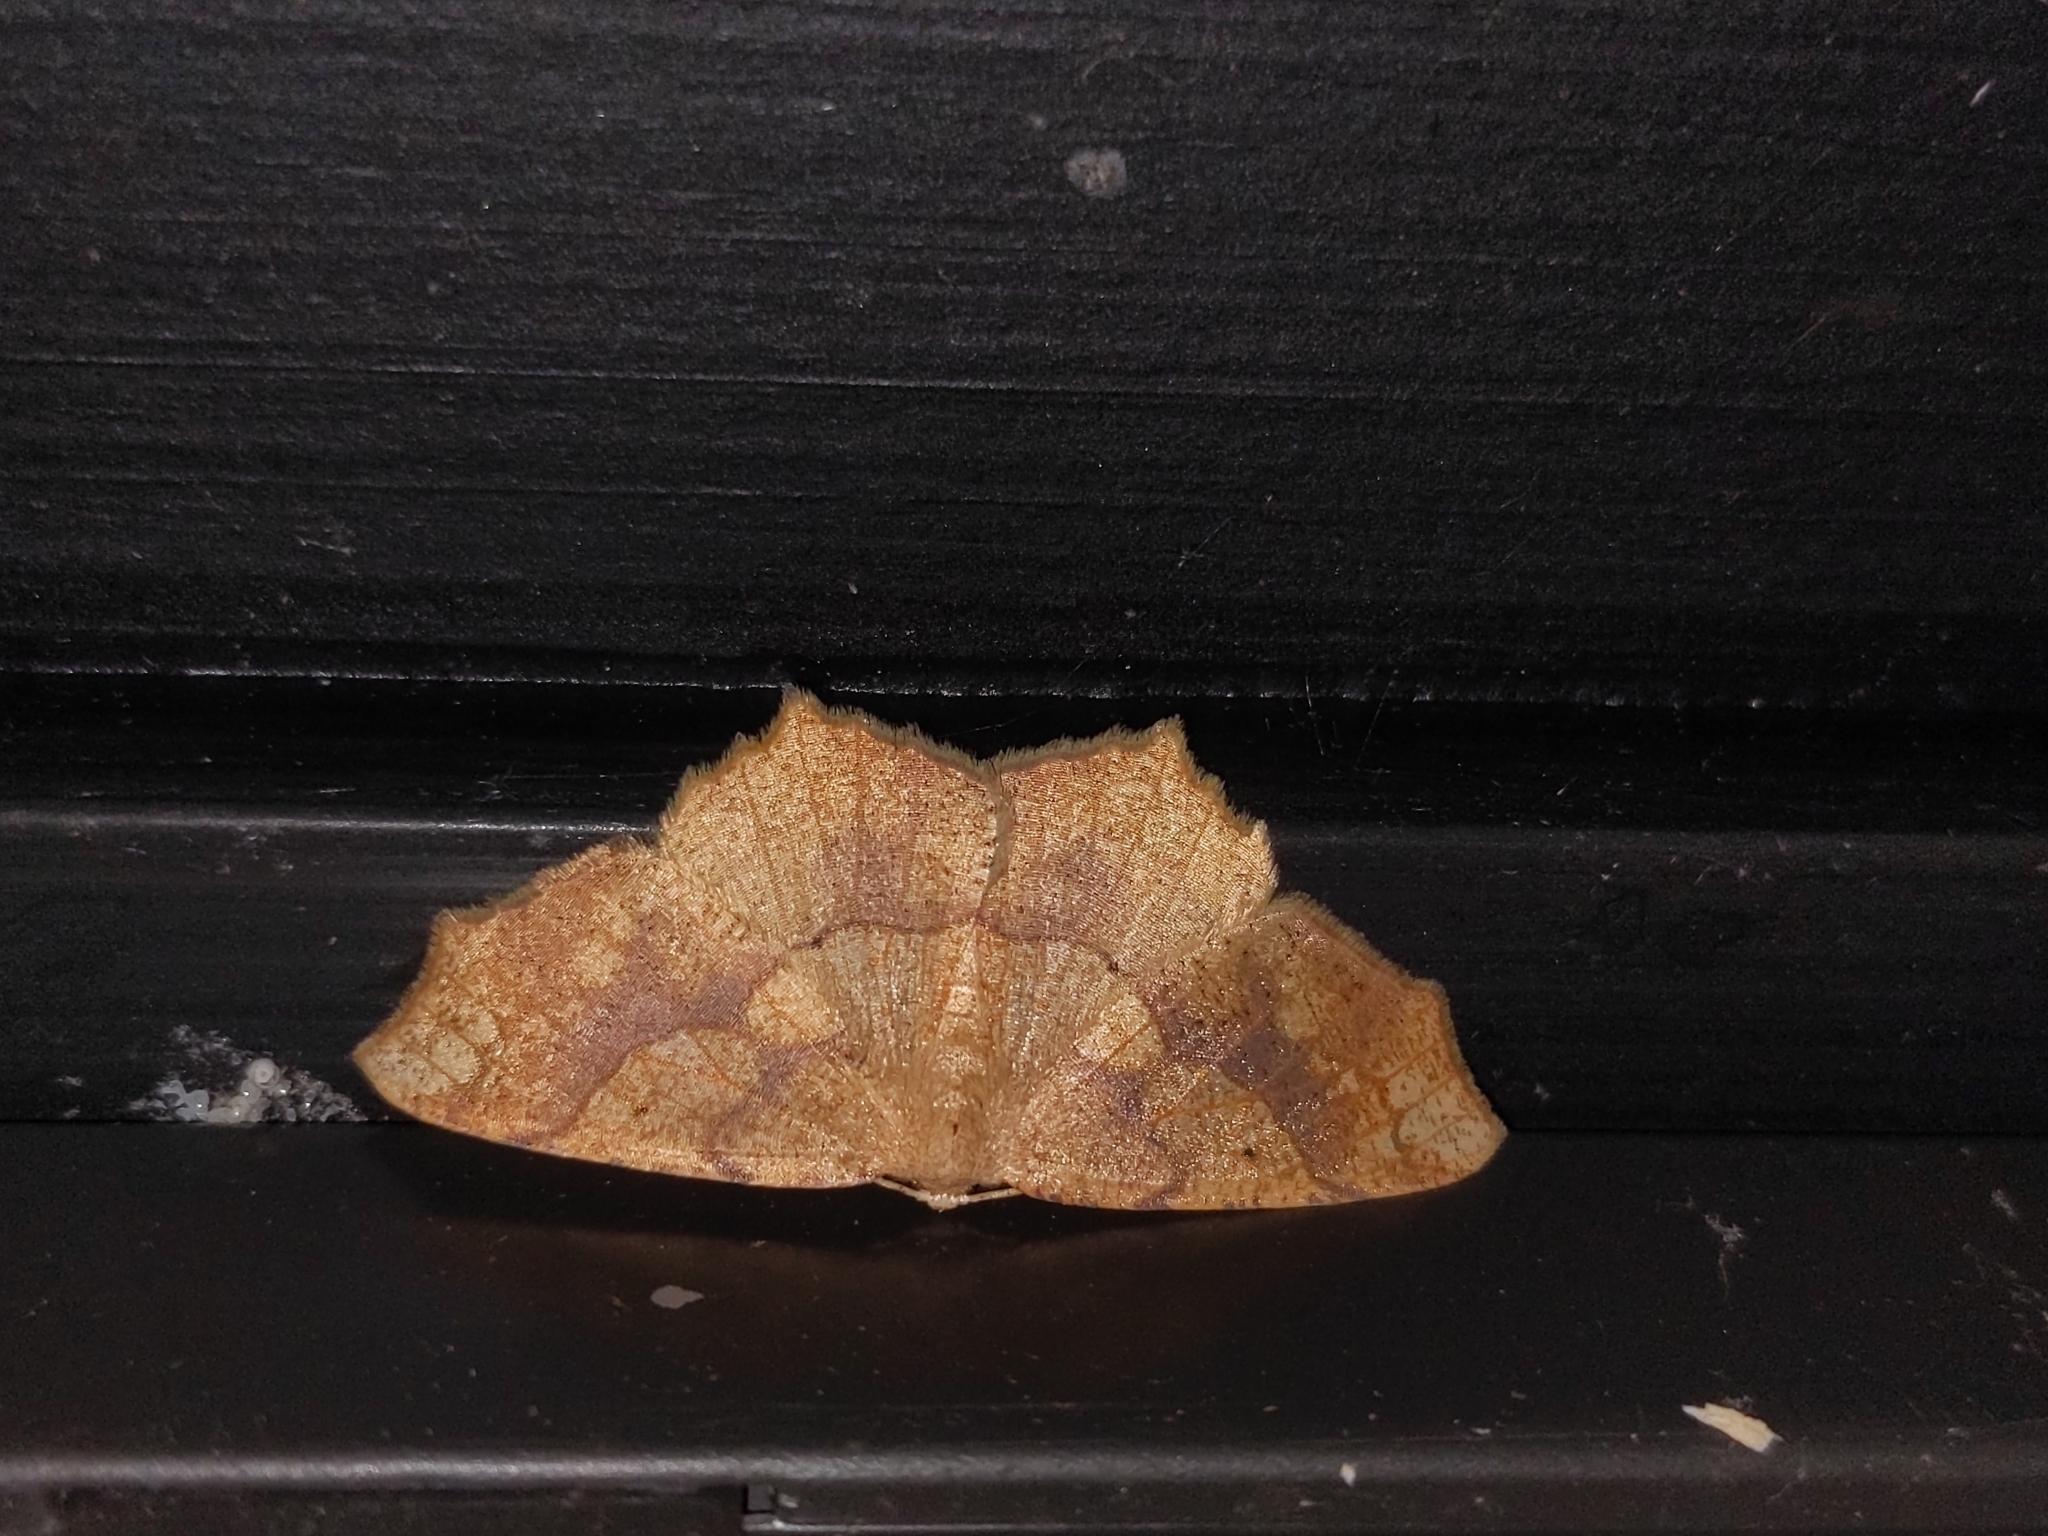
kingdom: Animalia
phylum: Arthropoda
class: Insecta
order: Lepidoptera
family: Geometridae
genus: Besma
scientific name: Besma quercivoraria
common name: Oak besma
